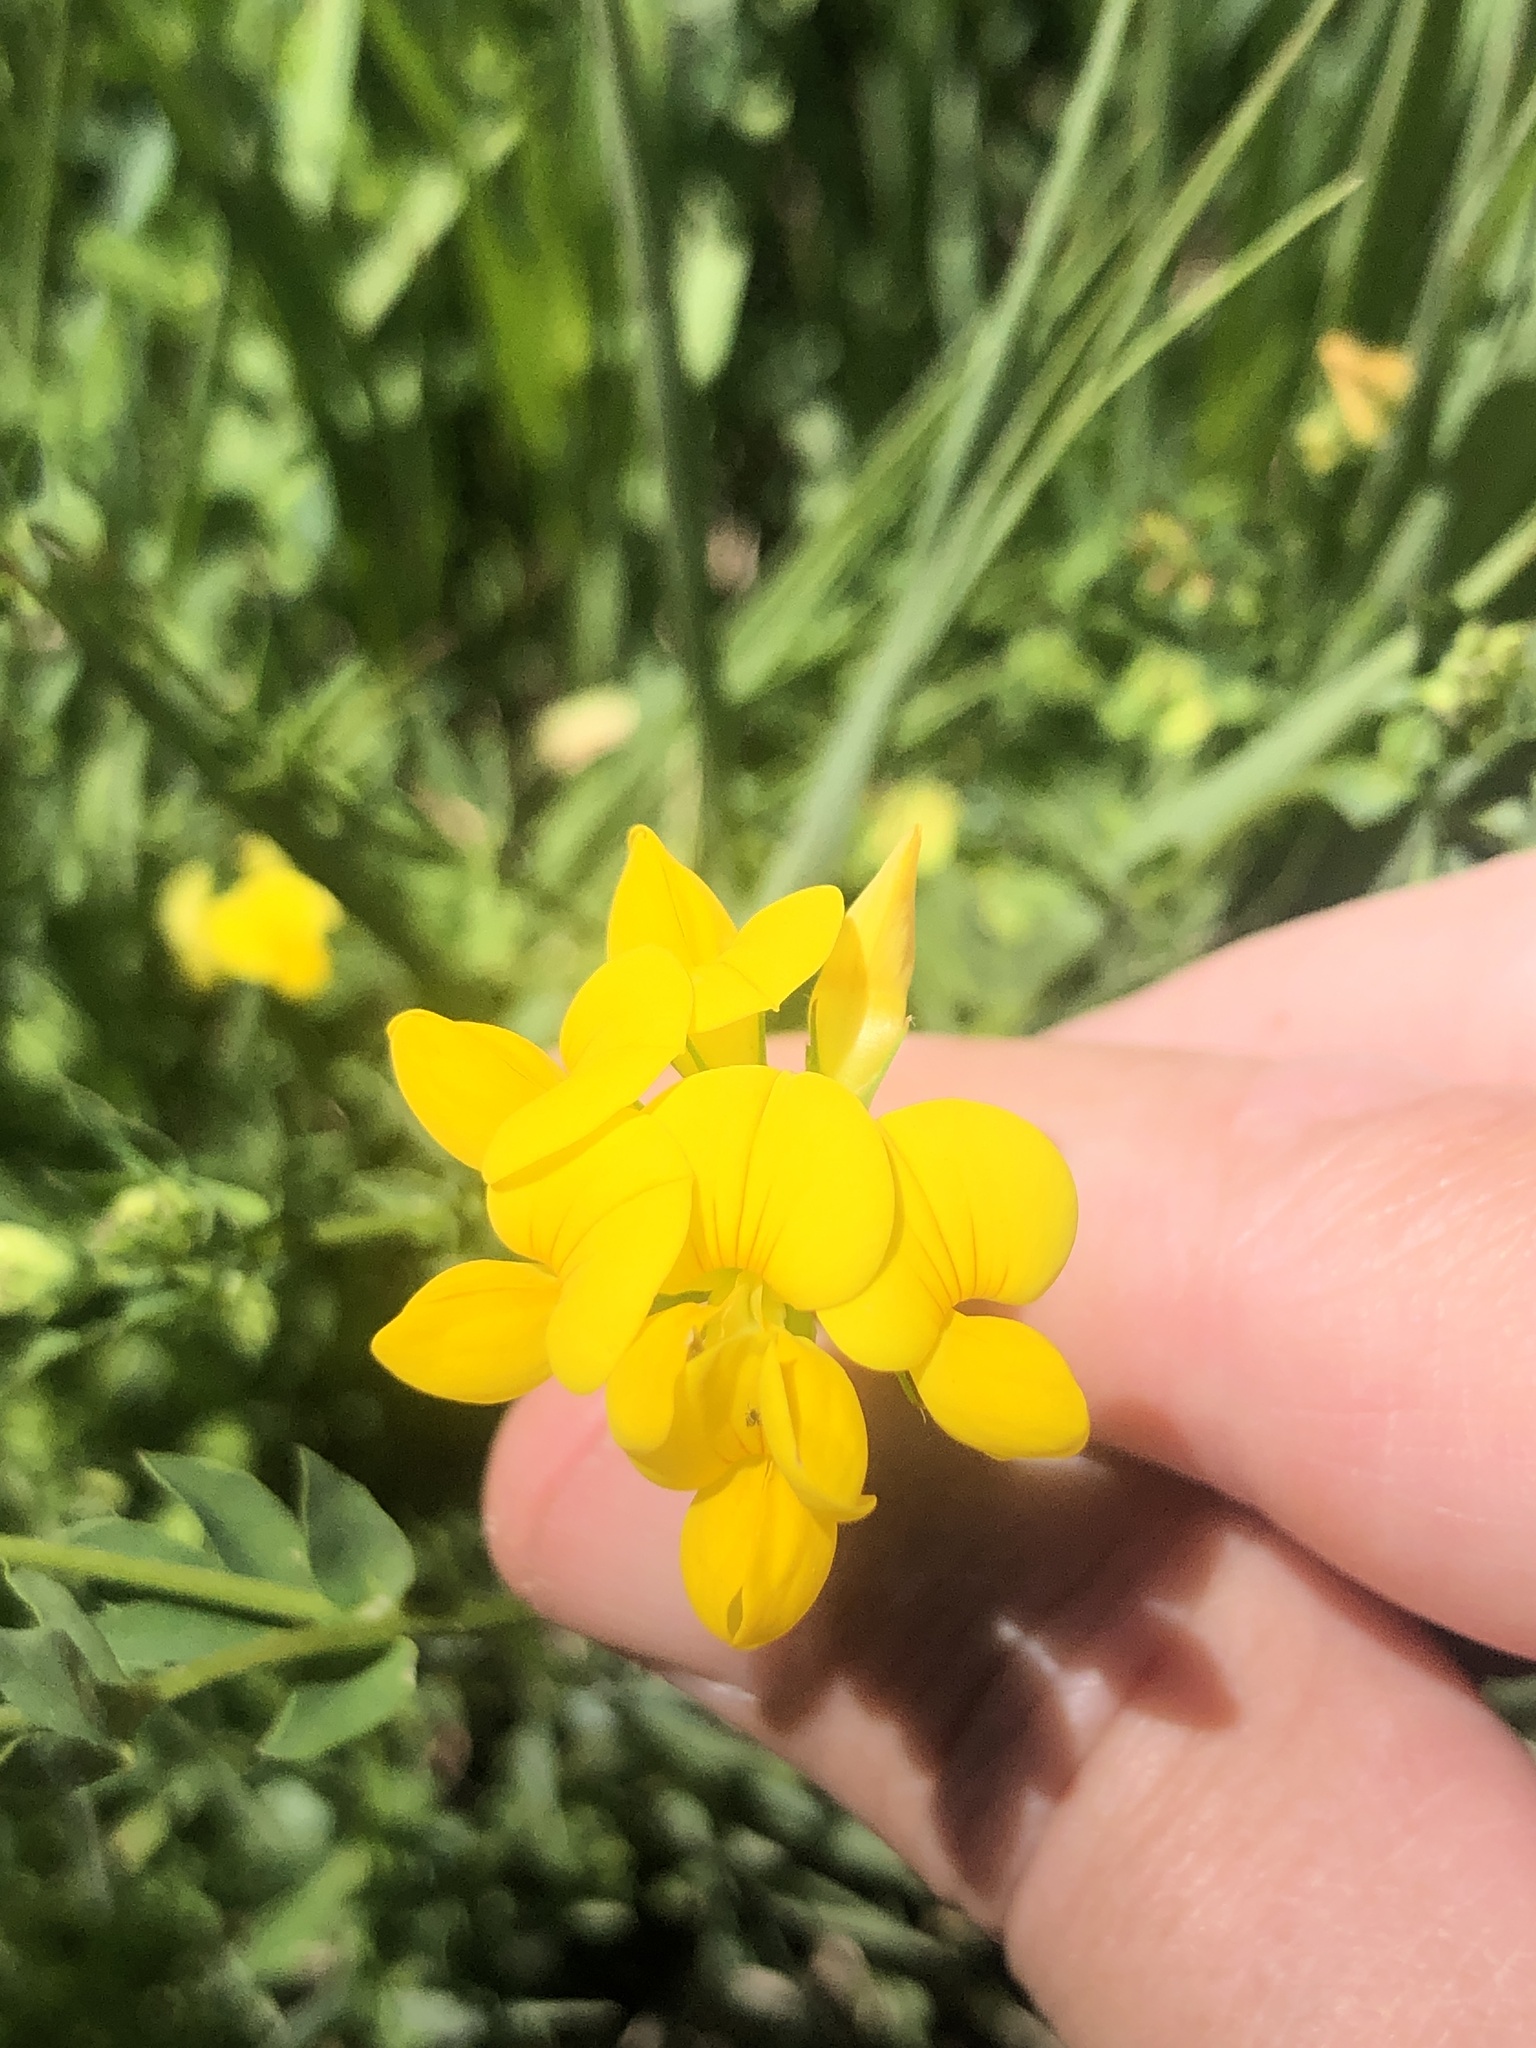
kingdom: Plantae
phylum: Tracheophyta
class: Magnoliopsida
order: Fabales
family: Fabaceae
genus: Lotus
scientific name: Lotus corniculatus
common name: Common bird's-foot-trefoil
